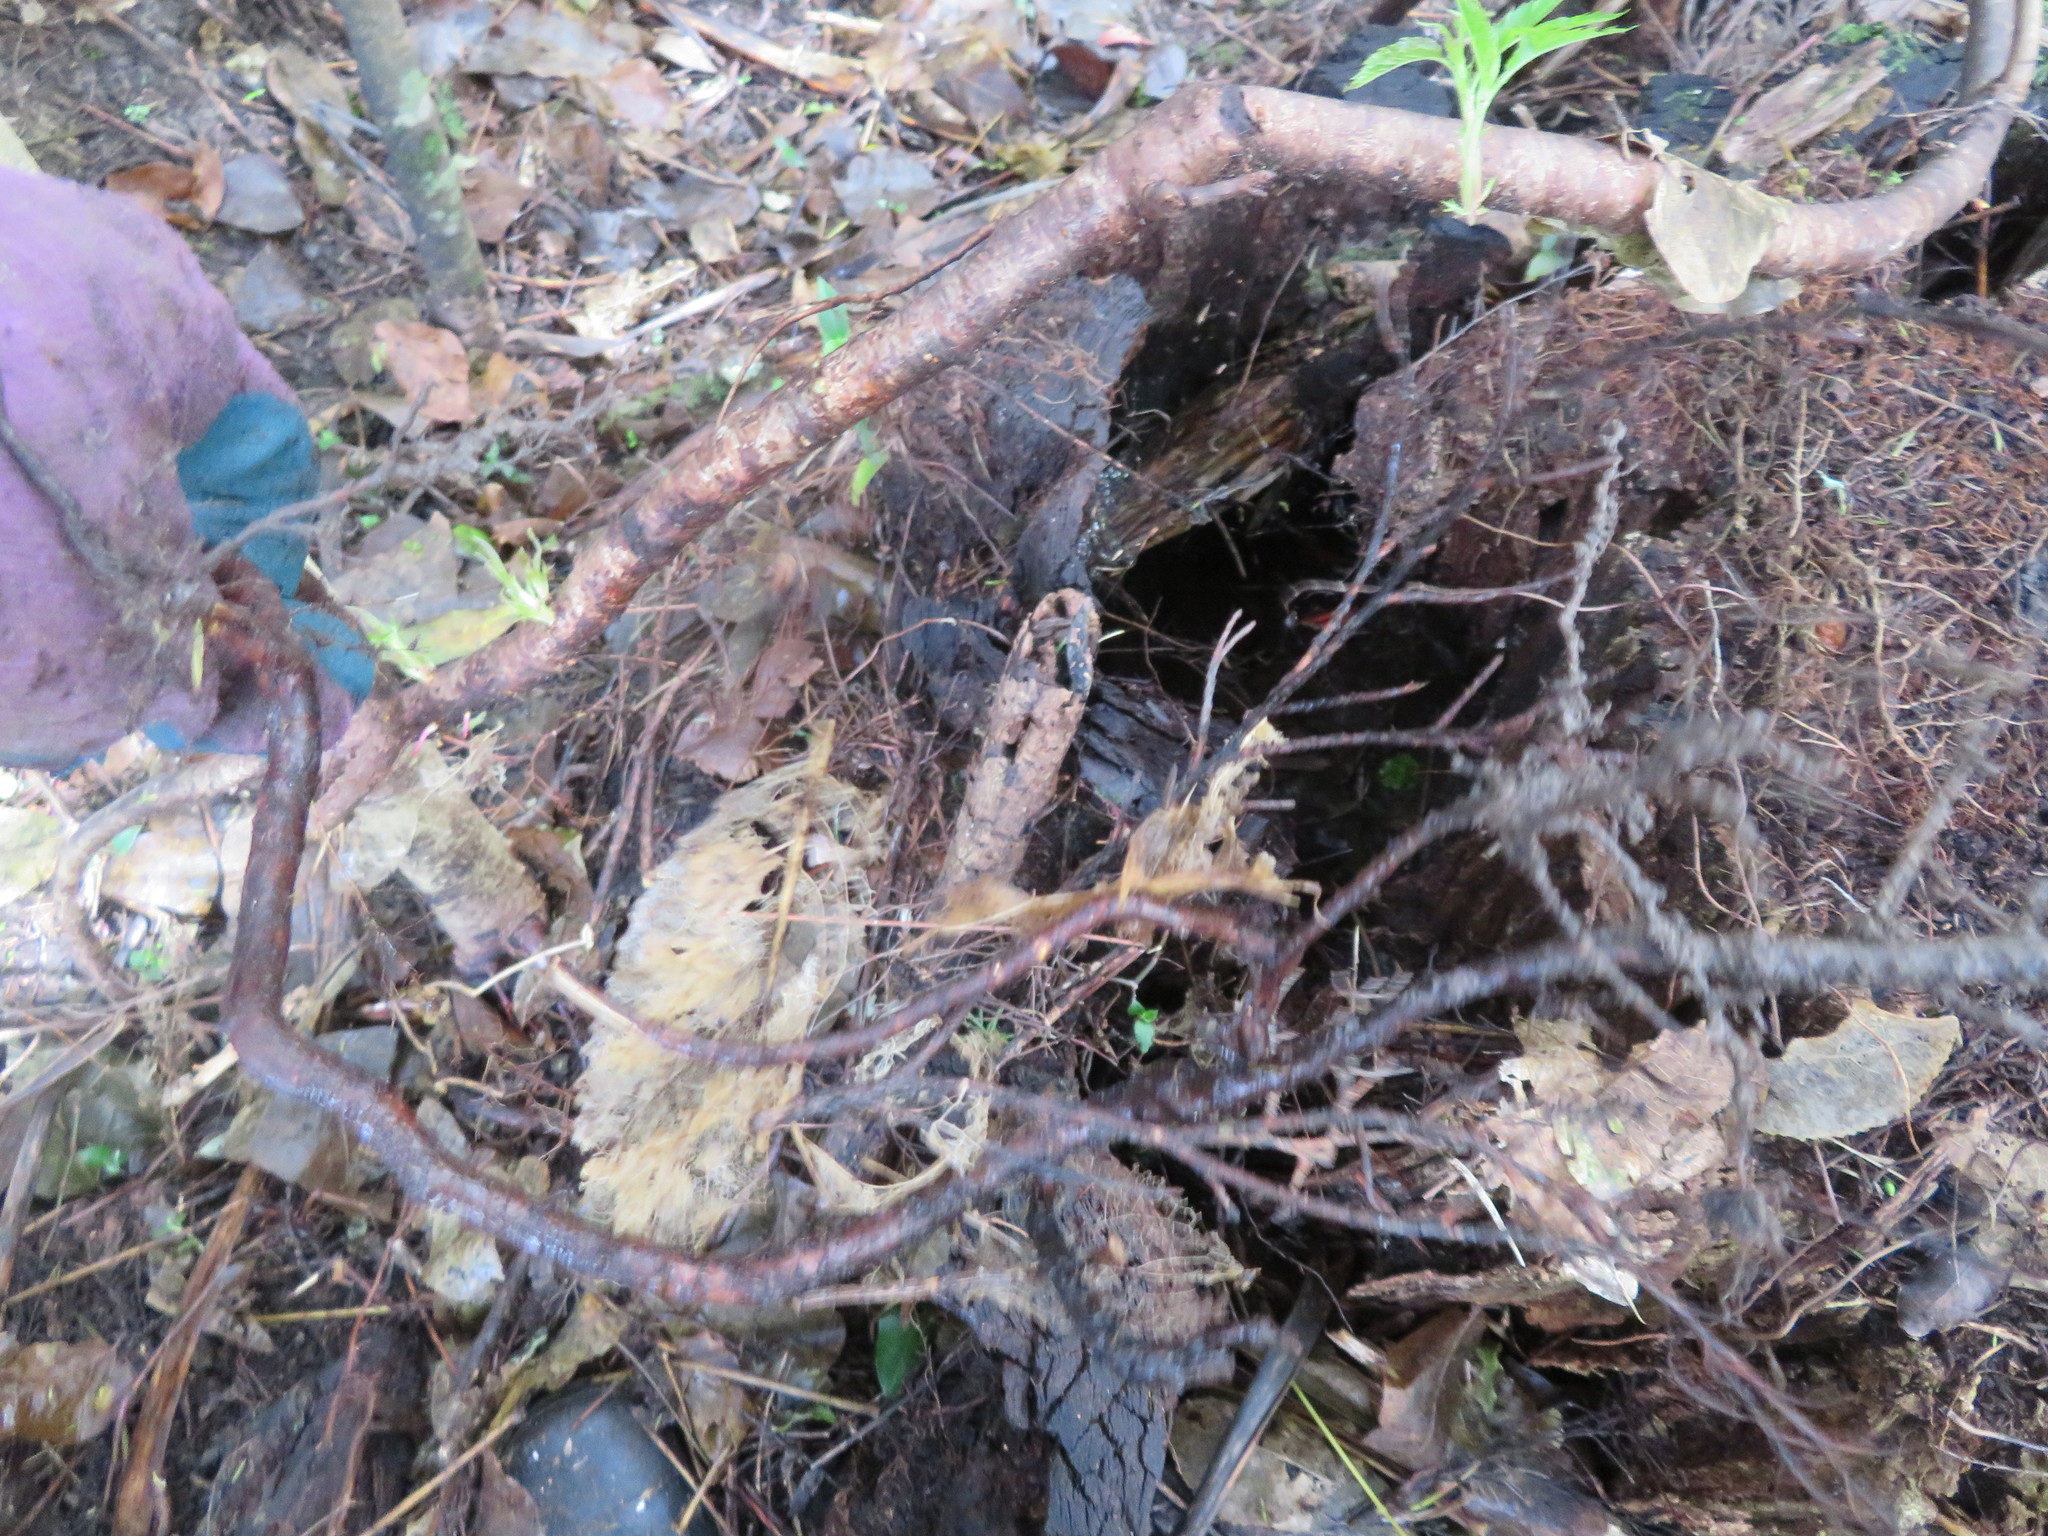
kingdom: Plantae
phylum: Tracheophyta
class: Magnoliopsida
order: Rosales
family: Rosaceae
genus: Prunus
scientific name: Prunus serrulata
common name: Japanese cherry
